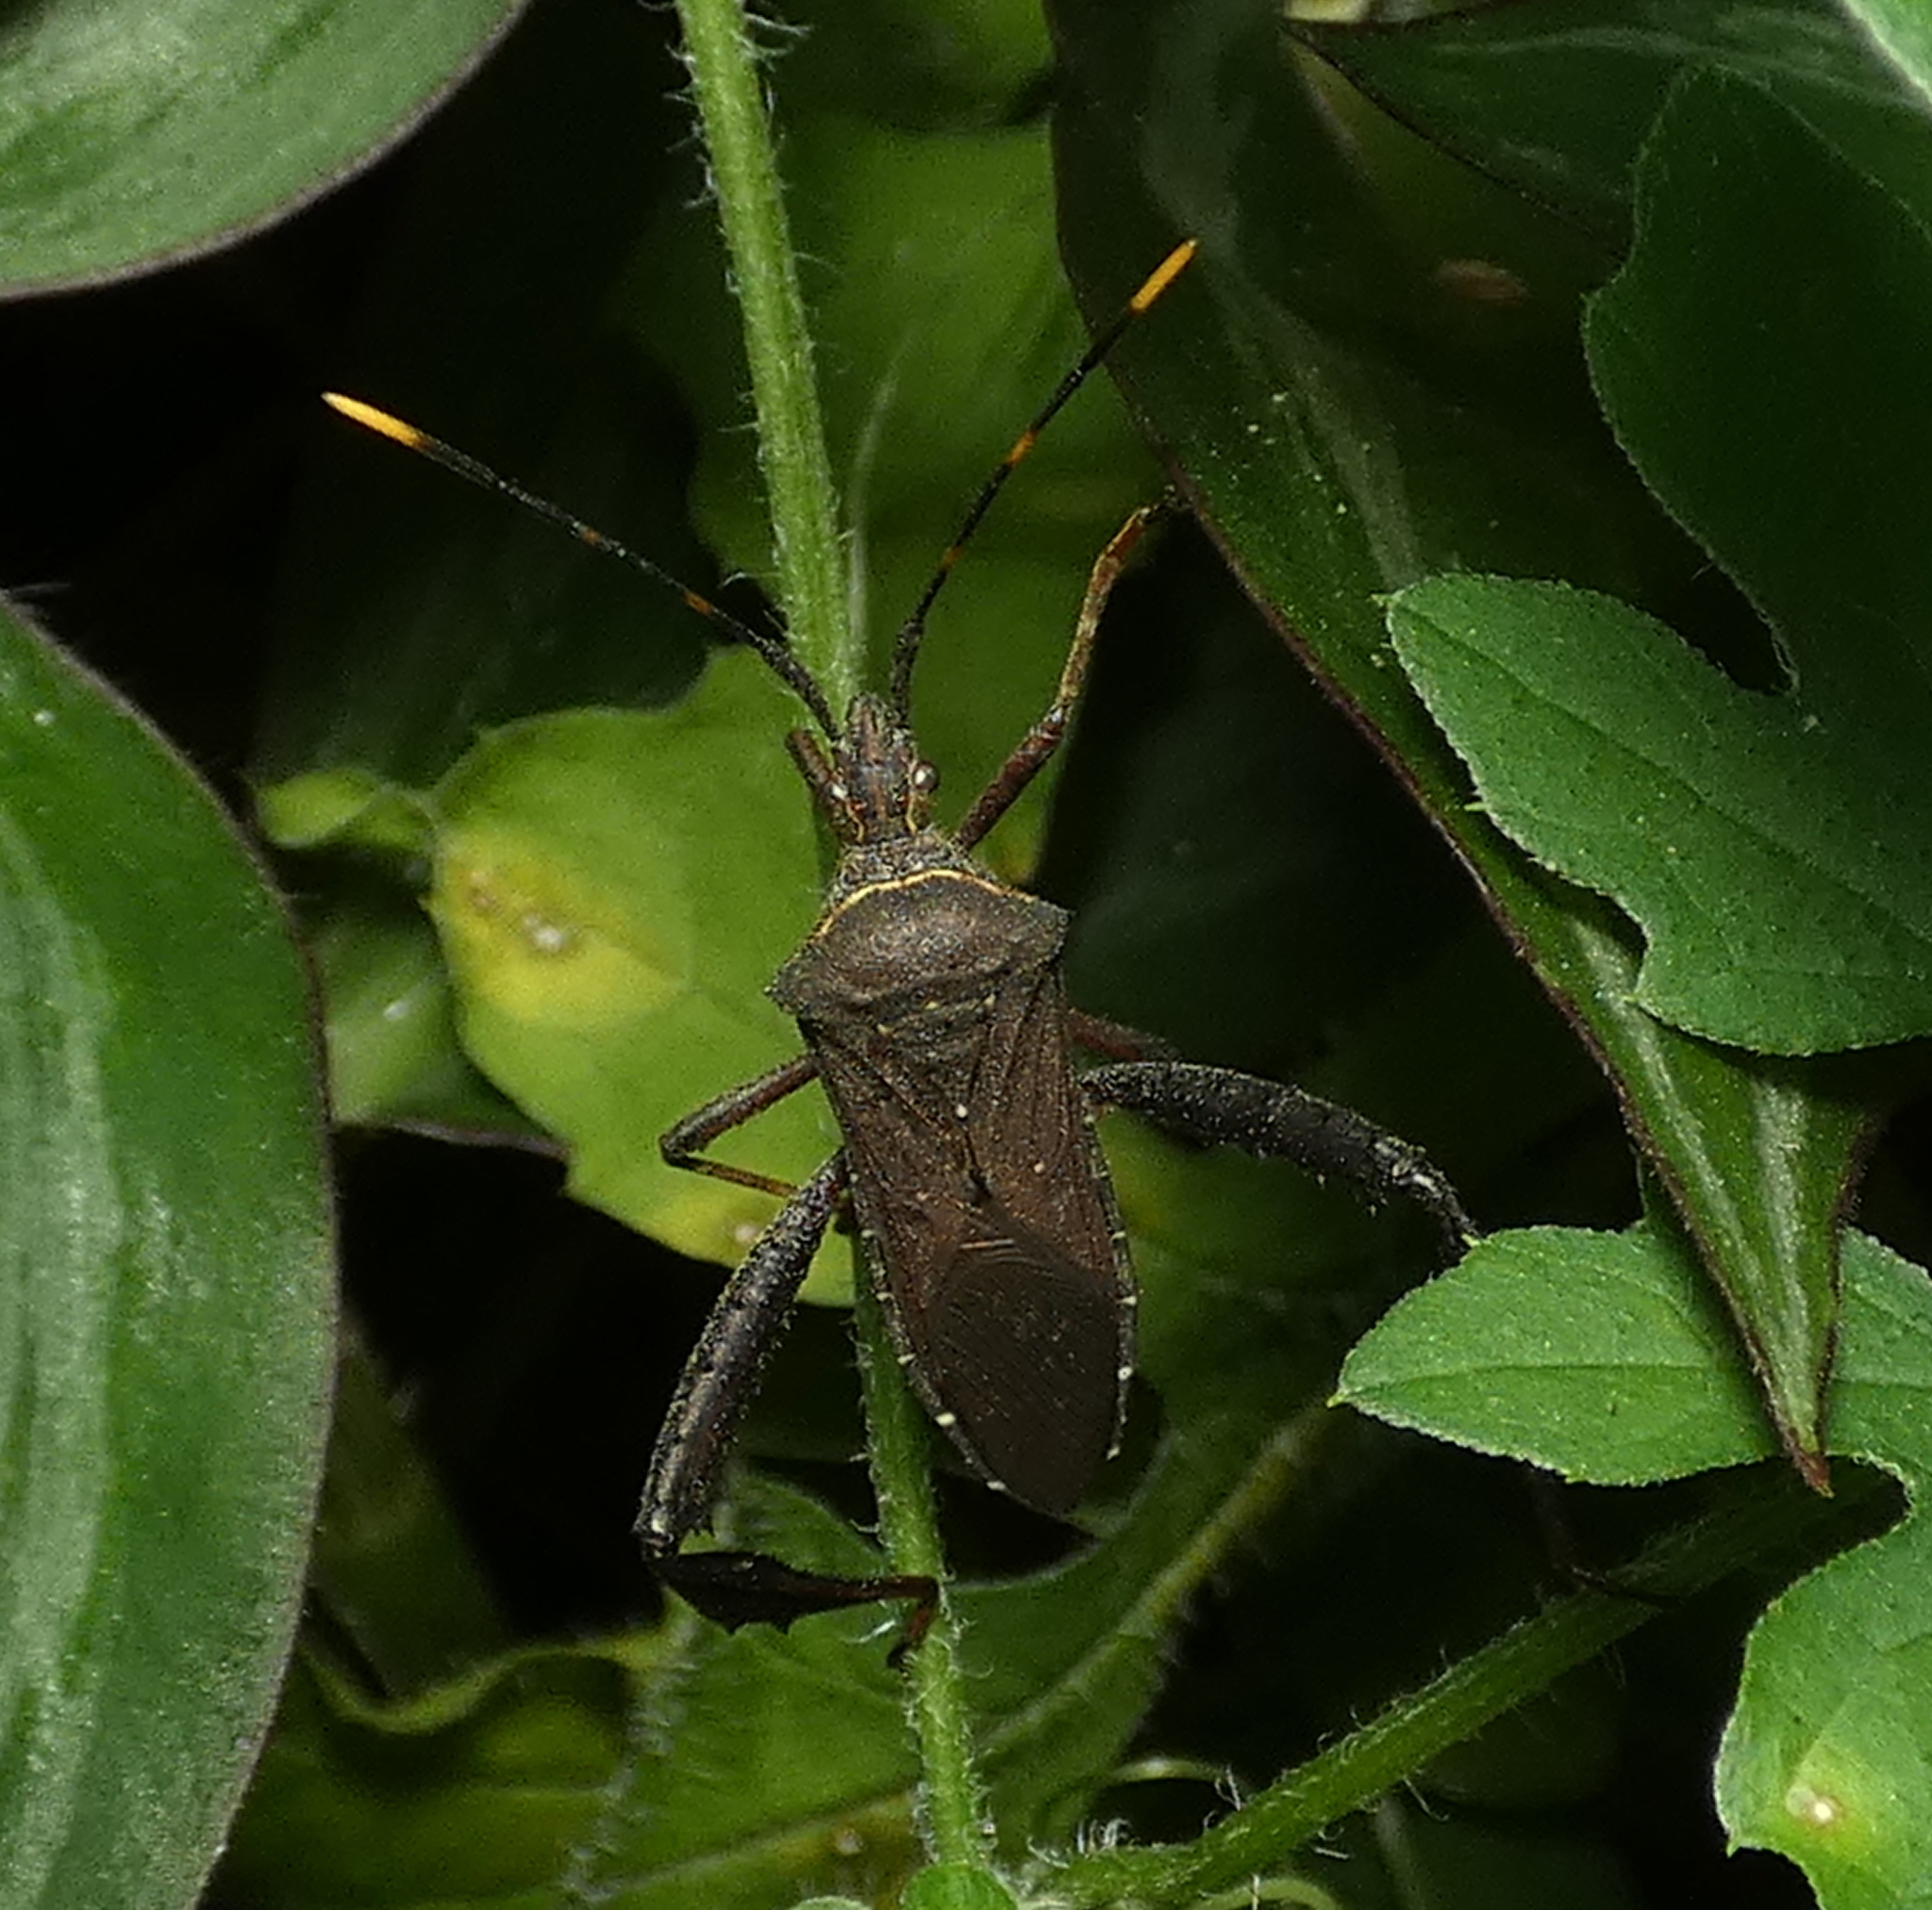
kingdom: Animalia
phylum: Arthropoda
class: Insecta
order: Hemiptera
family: Coreidae
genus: Leptoglossus
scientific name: Leptoglossus gonagra
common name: Citron bug
